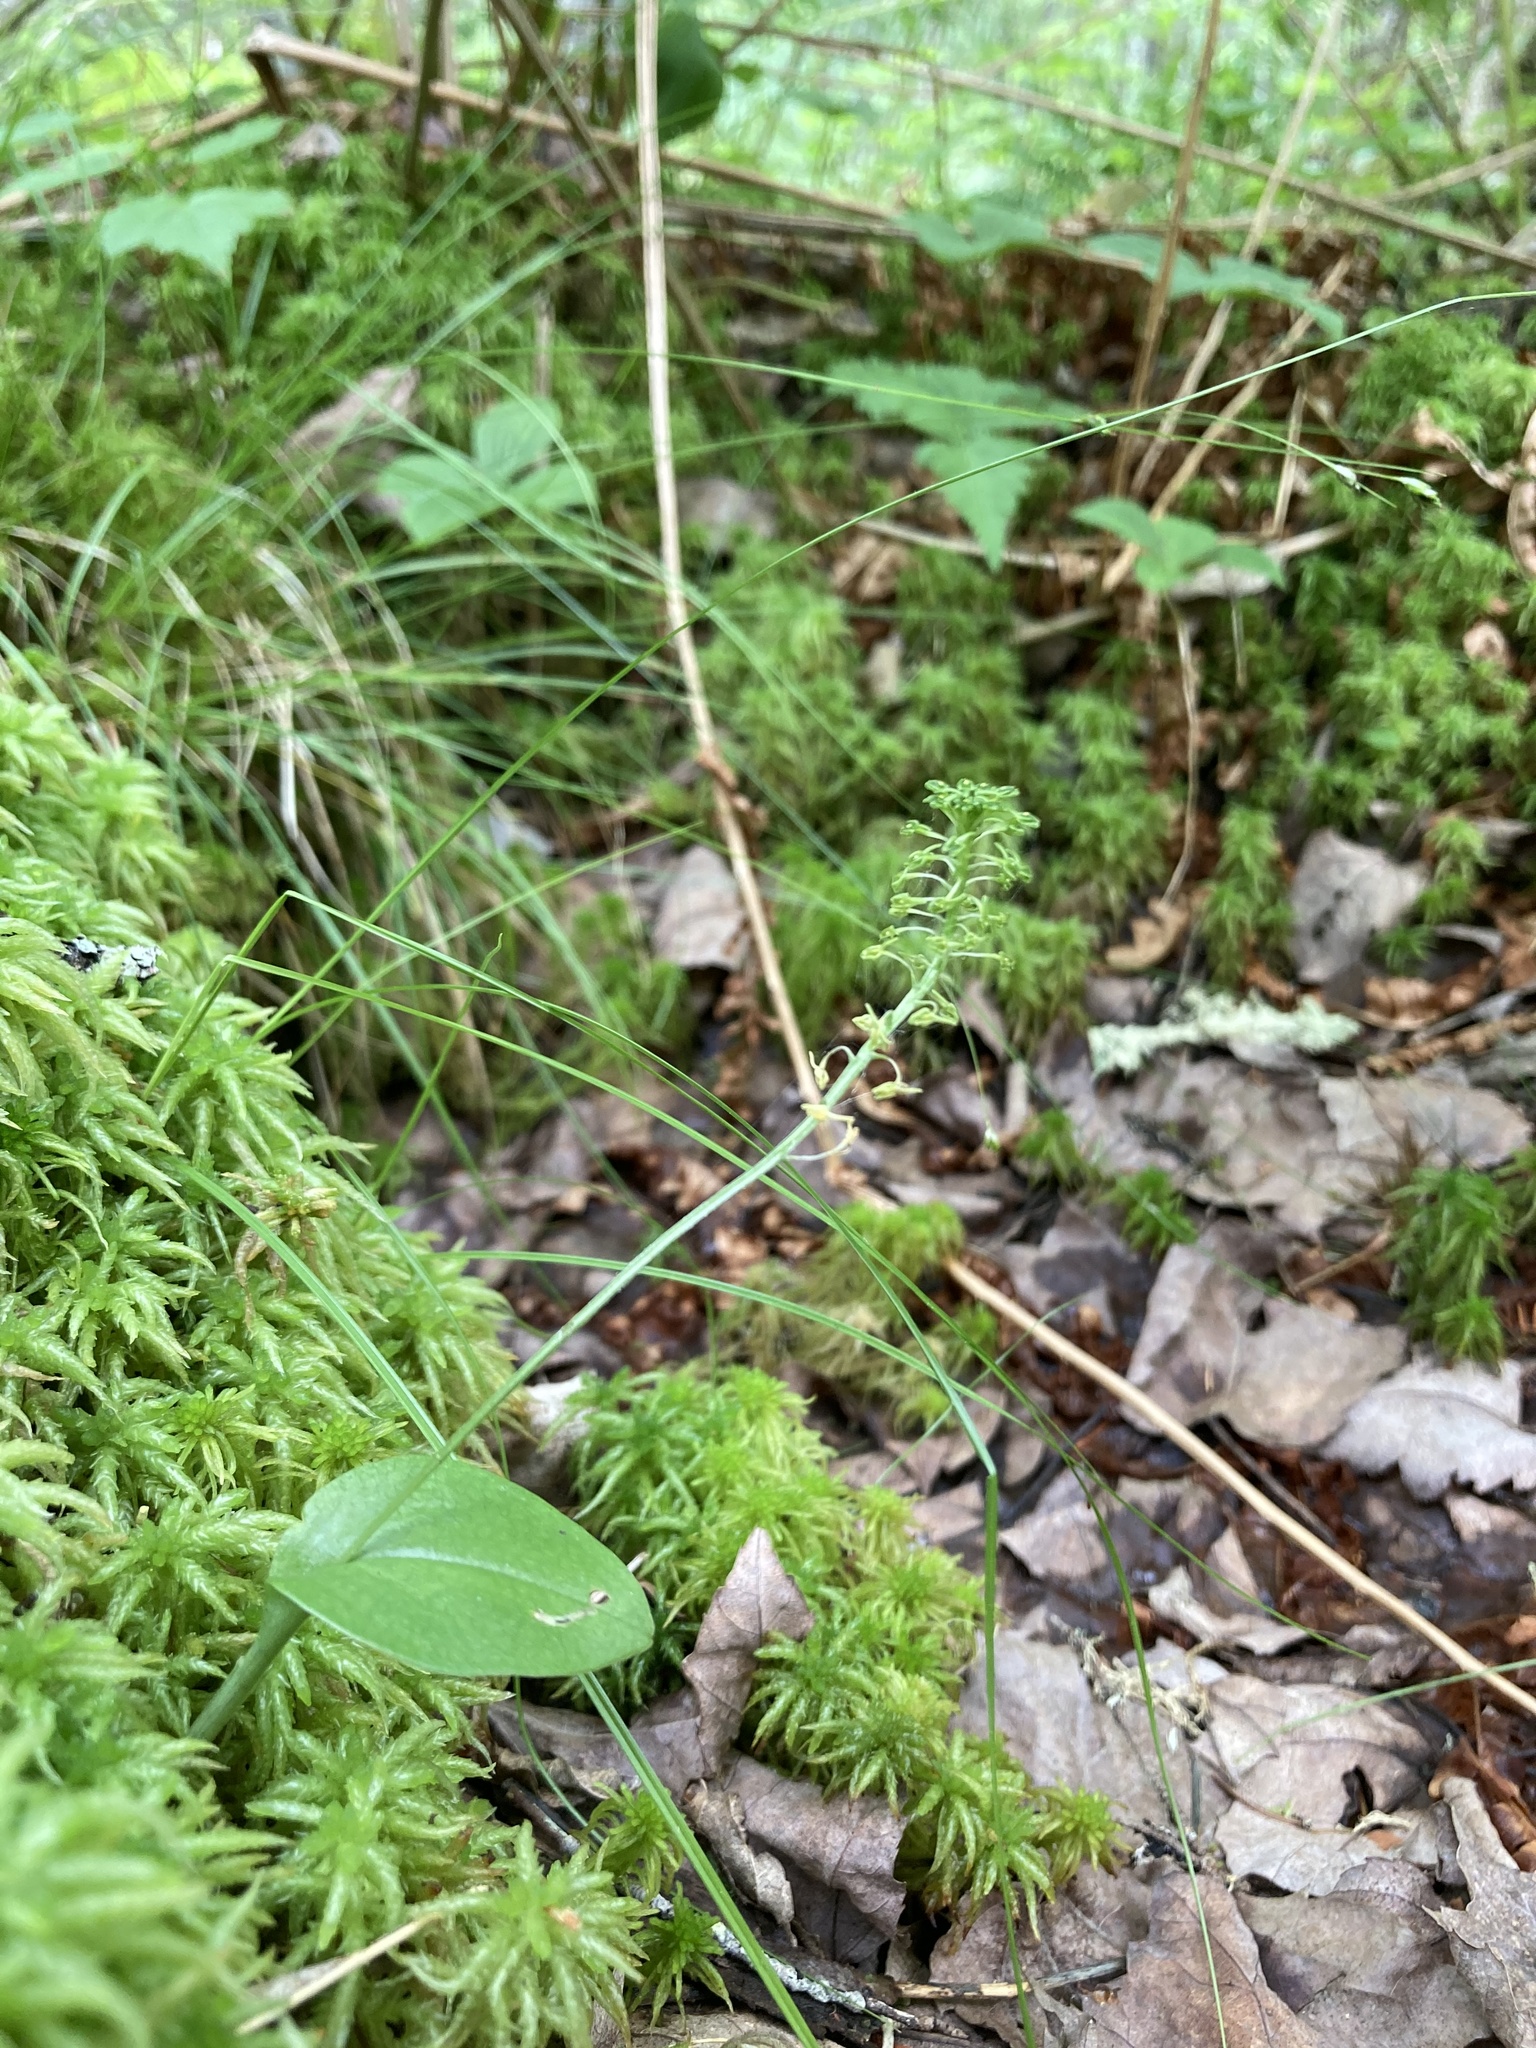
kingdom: Plantae
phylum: Tracheophyta
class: Liliopsida
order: Asparagales
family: Orchidaceae
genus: Malaxis
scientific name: Malaxis unifolia
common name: Green adder's-mouth
